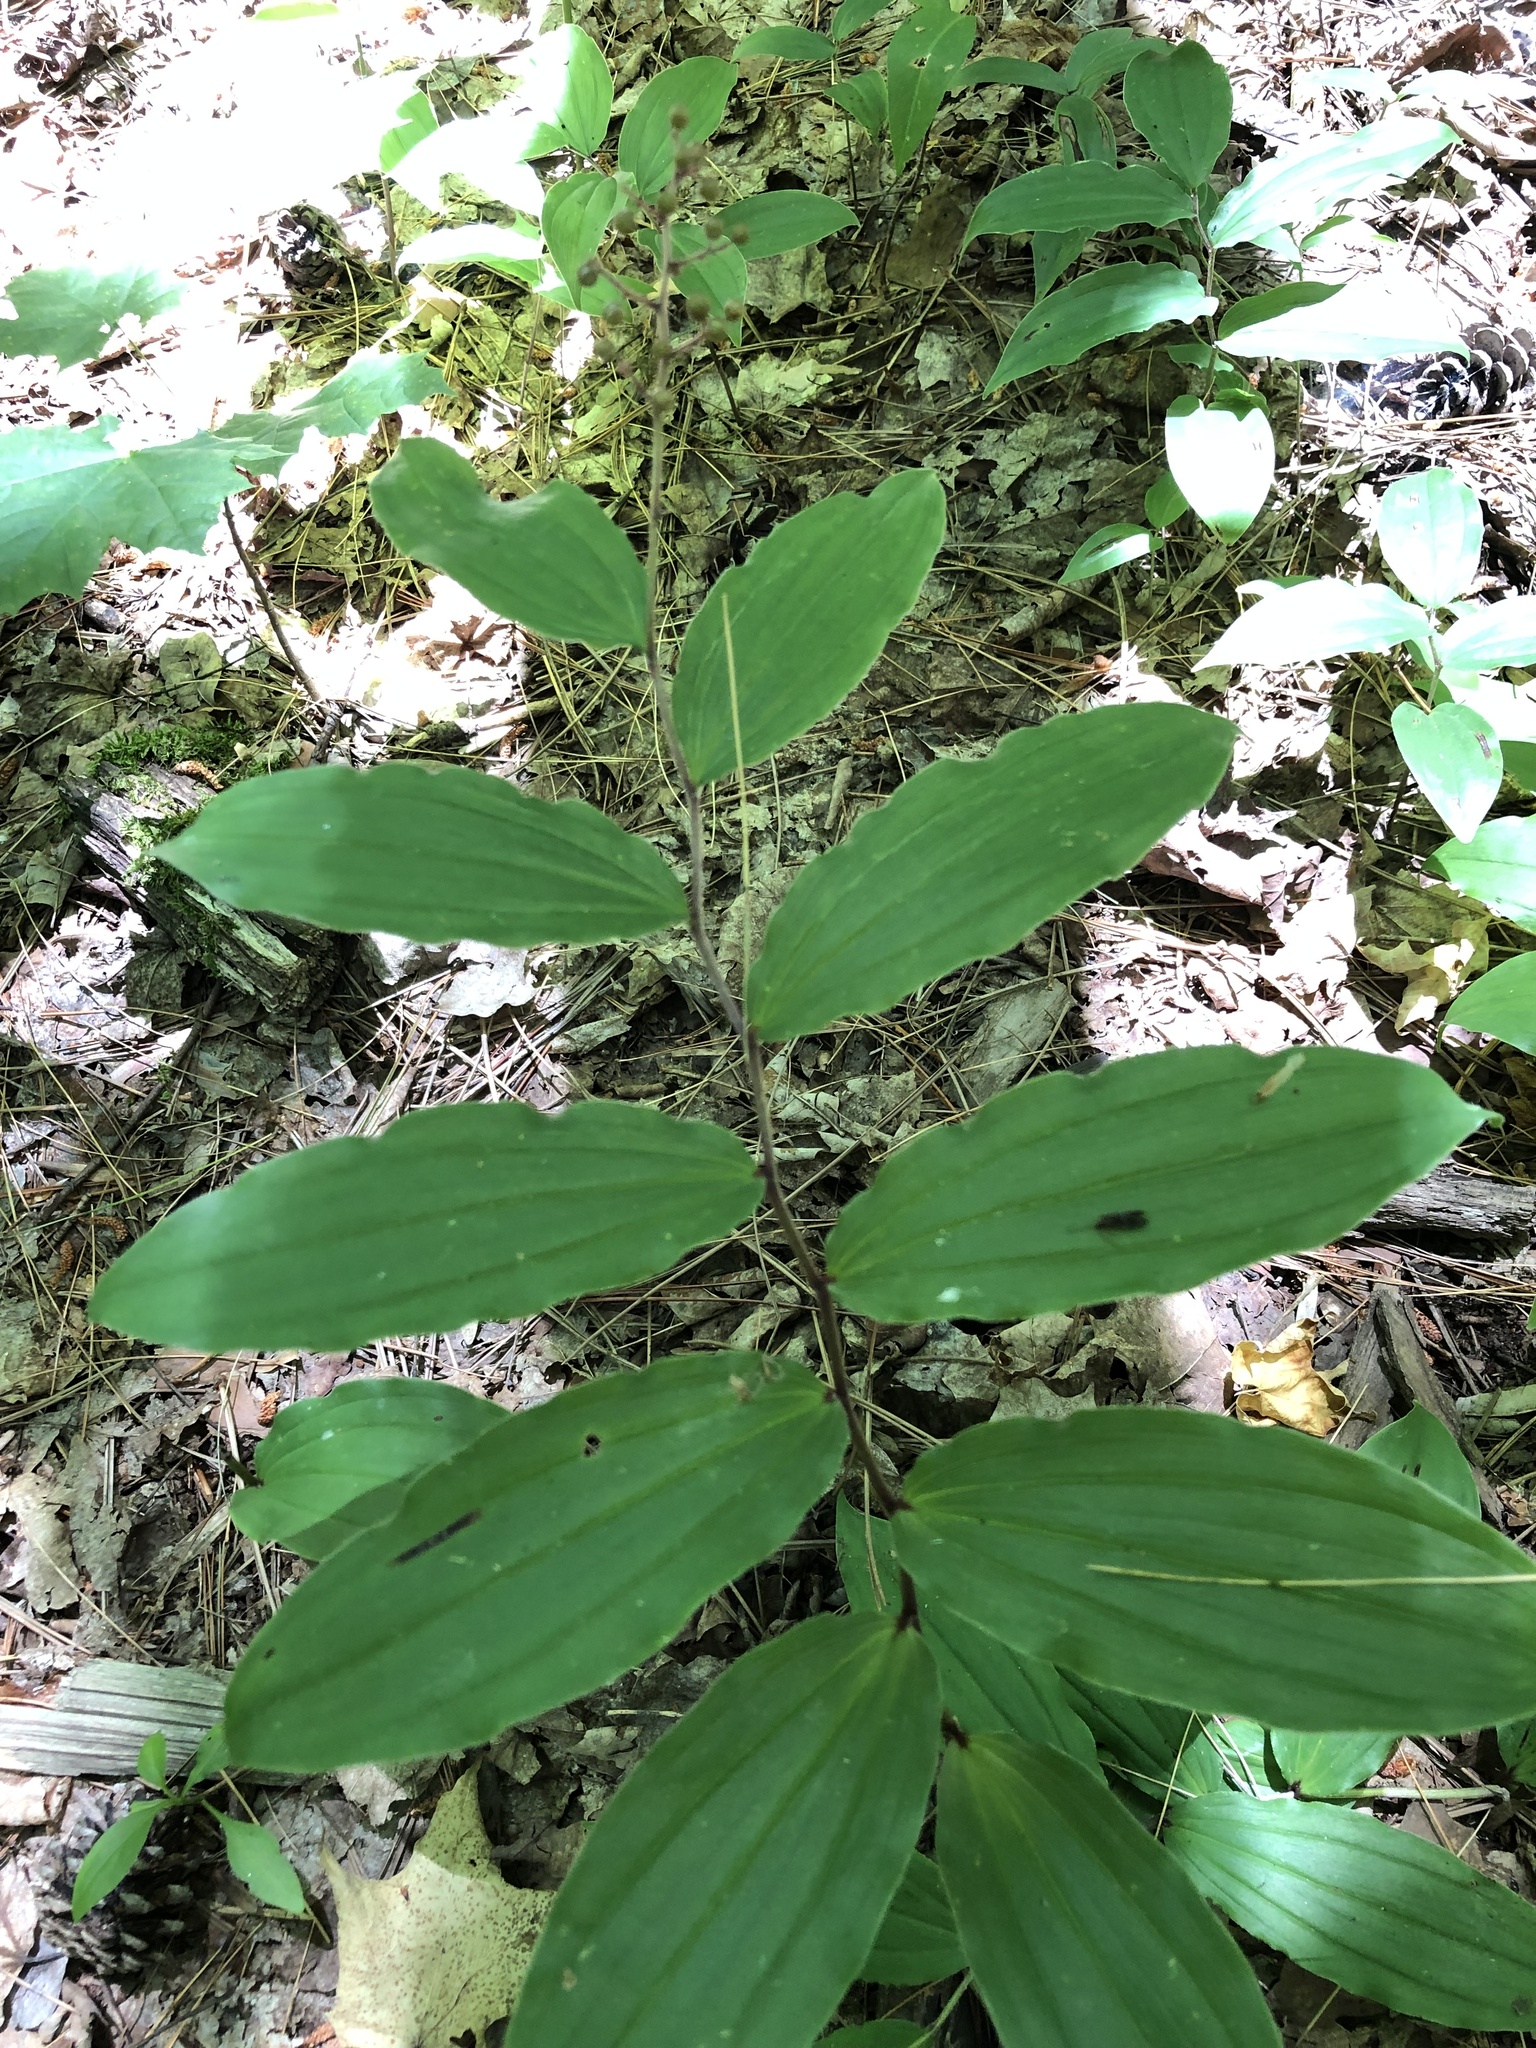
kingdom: Plantae
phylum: Tracheophyta
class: Liliopsida
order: Asparagales
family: Asparagaceae
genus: Maianthemum
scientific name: Maianthemum racemosum
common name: False spikenard
